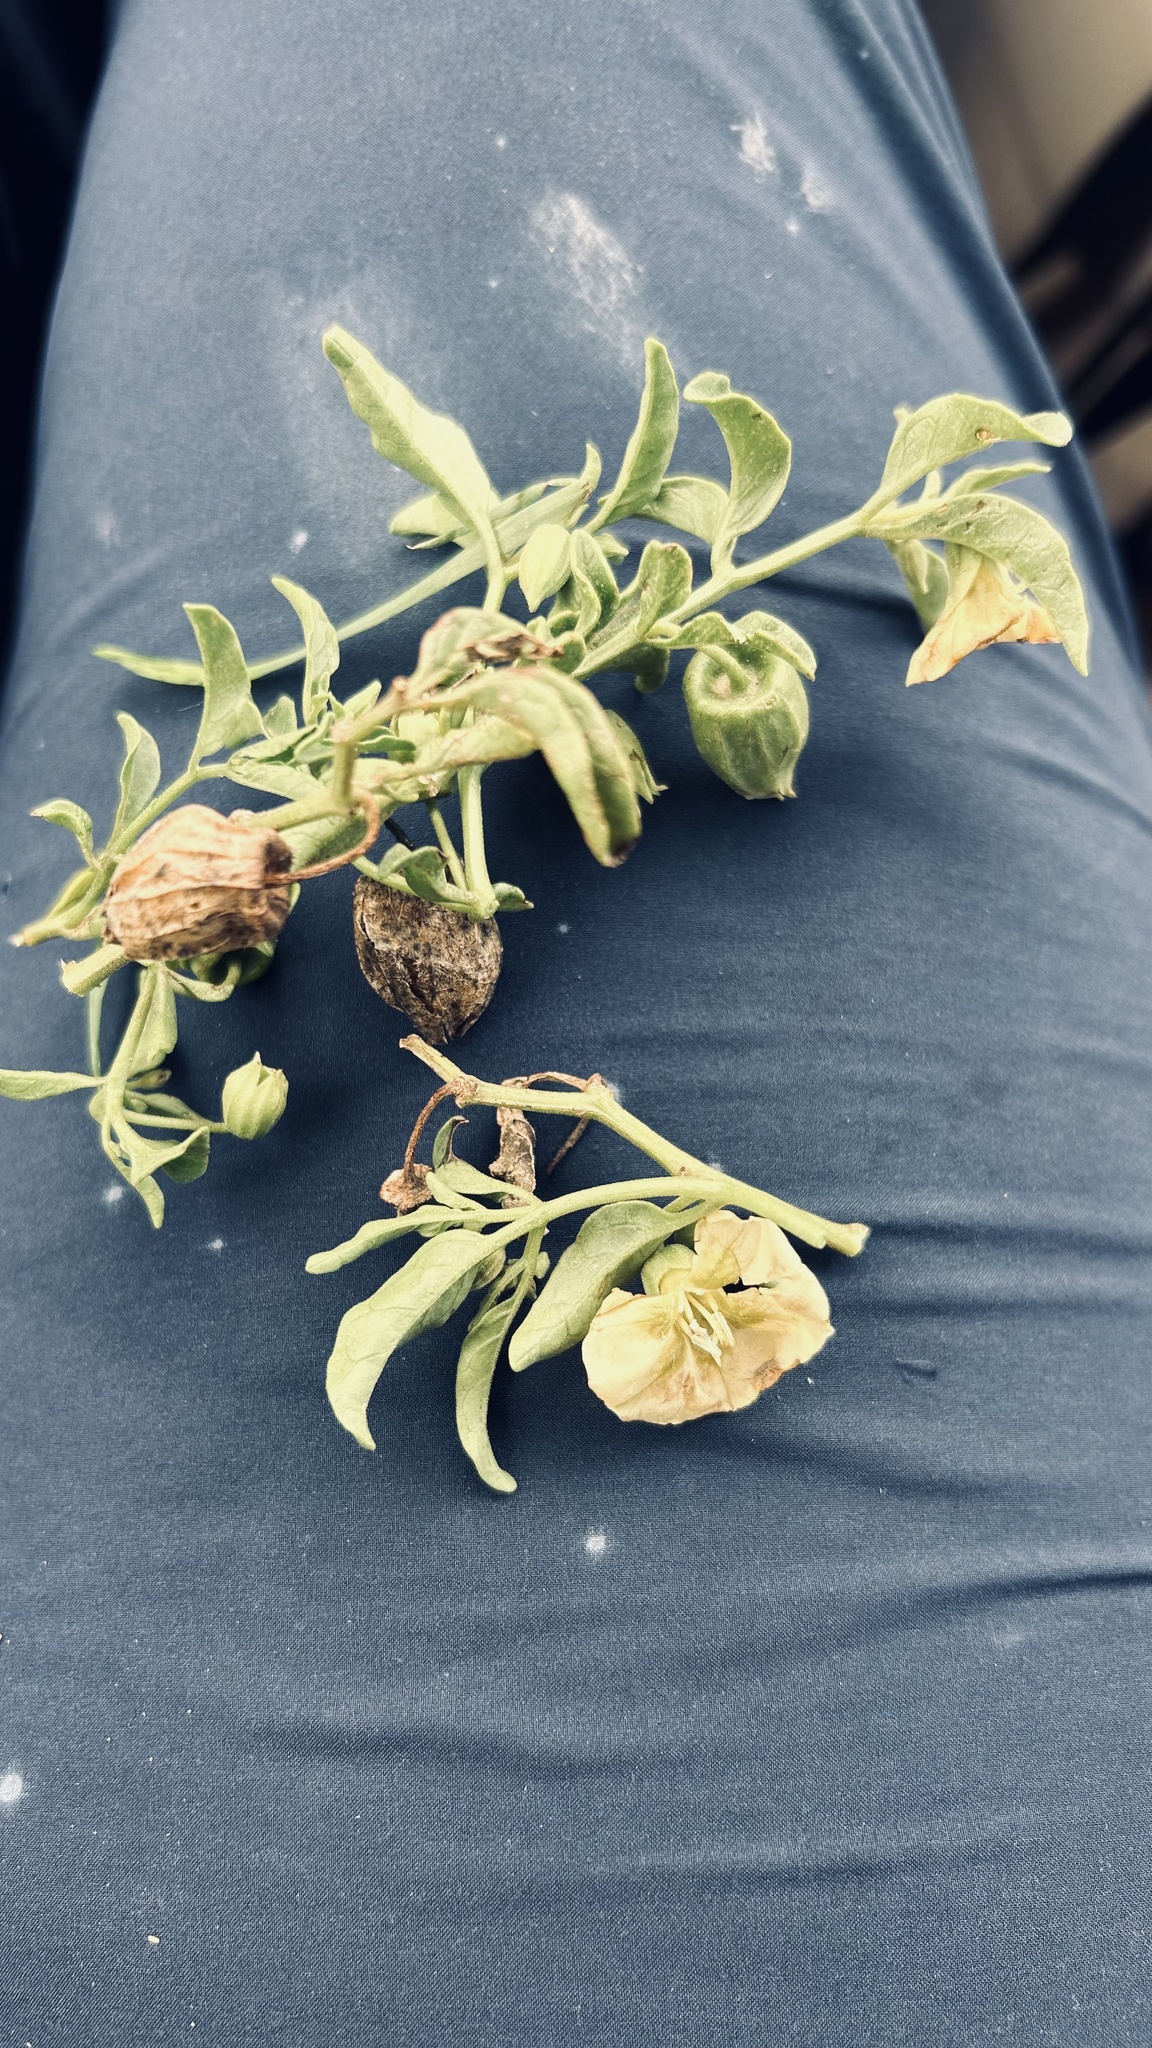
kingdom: Plantae
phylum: Tracheophyta
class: Magnoliopsida
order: Solanales
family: Solanaceae
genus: Physalis
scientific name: Physalis viscosa
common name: Stellate ground-cherry
